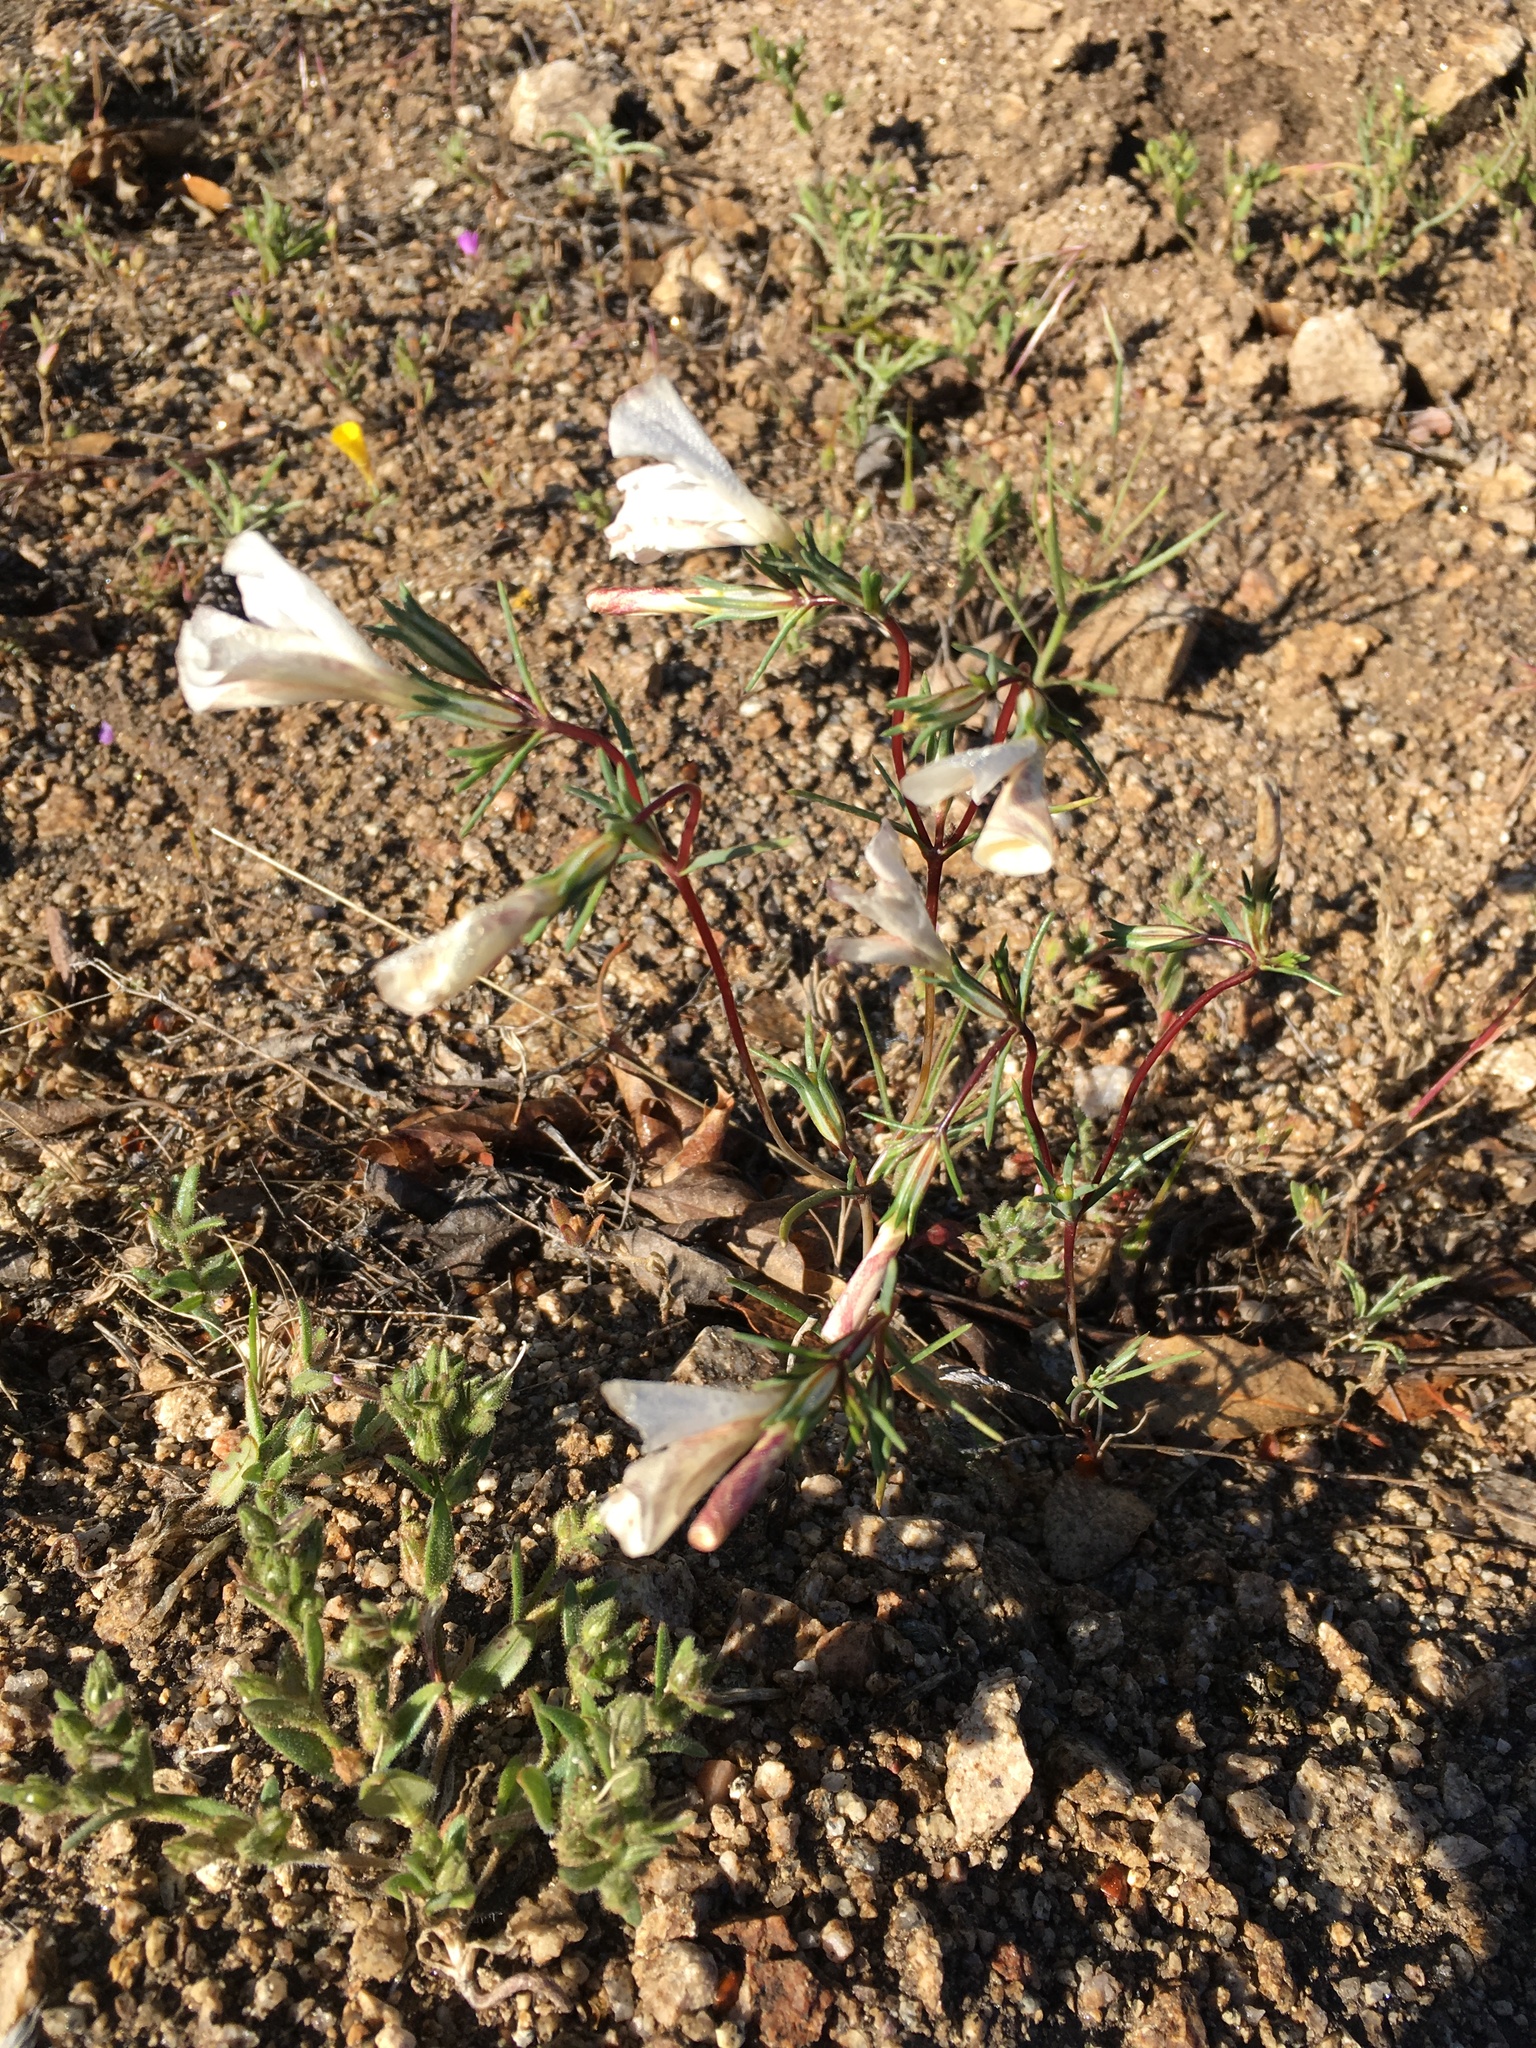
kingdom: Plantae
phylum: Tracheophyta
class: Magnoliopsida
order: Ericales
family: Polemoniaceae
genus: Linanthus
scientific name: Linanthus dichotomus
